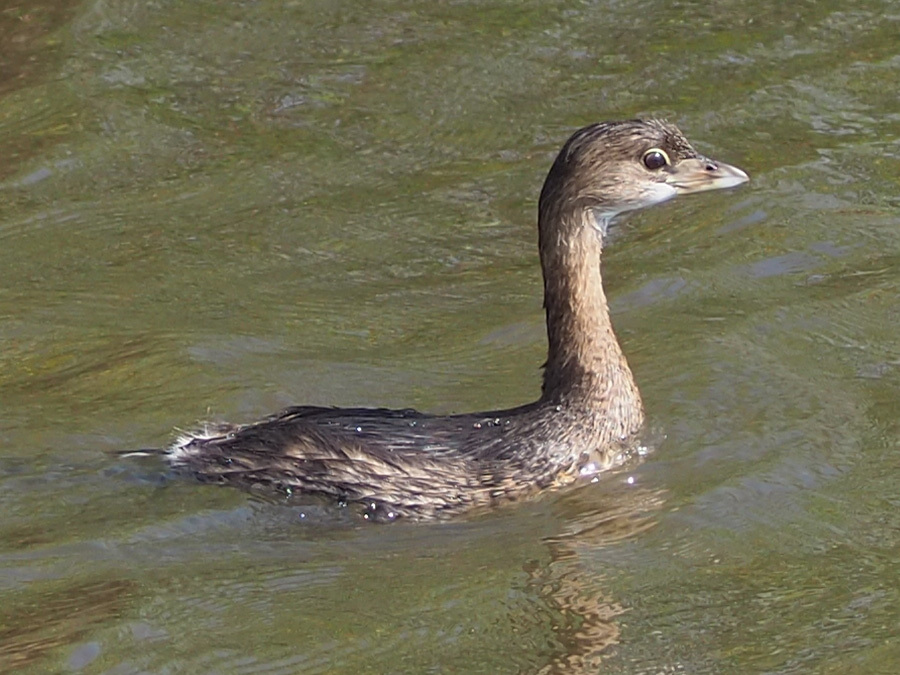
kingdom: Animalia
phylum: Chordata
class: Aves
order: Podicipediformes
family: Podicipedidae
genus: Podilymbus
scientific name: Podilymbus podiceps
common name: Pied-billed grebe
